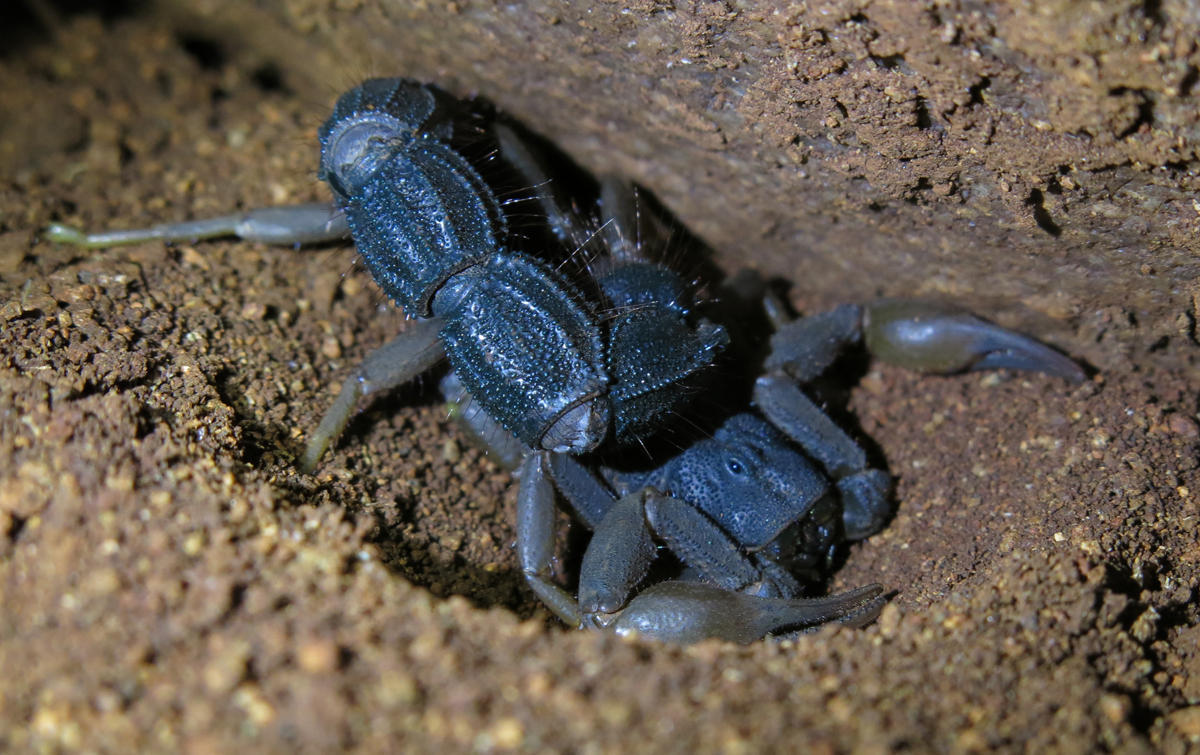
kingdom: Animalia
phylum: Arthropoda
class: Arachnida
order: Scorpiones
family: Buthidae
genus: Parabuthus
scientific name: Parabuthus transvaalicus
